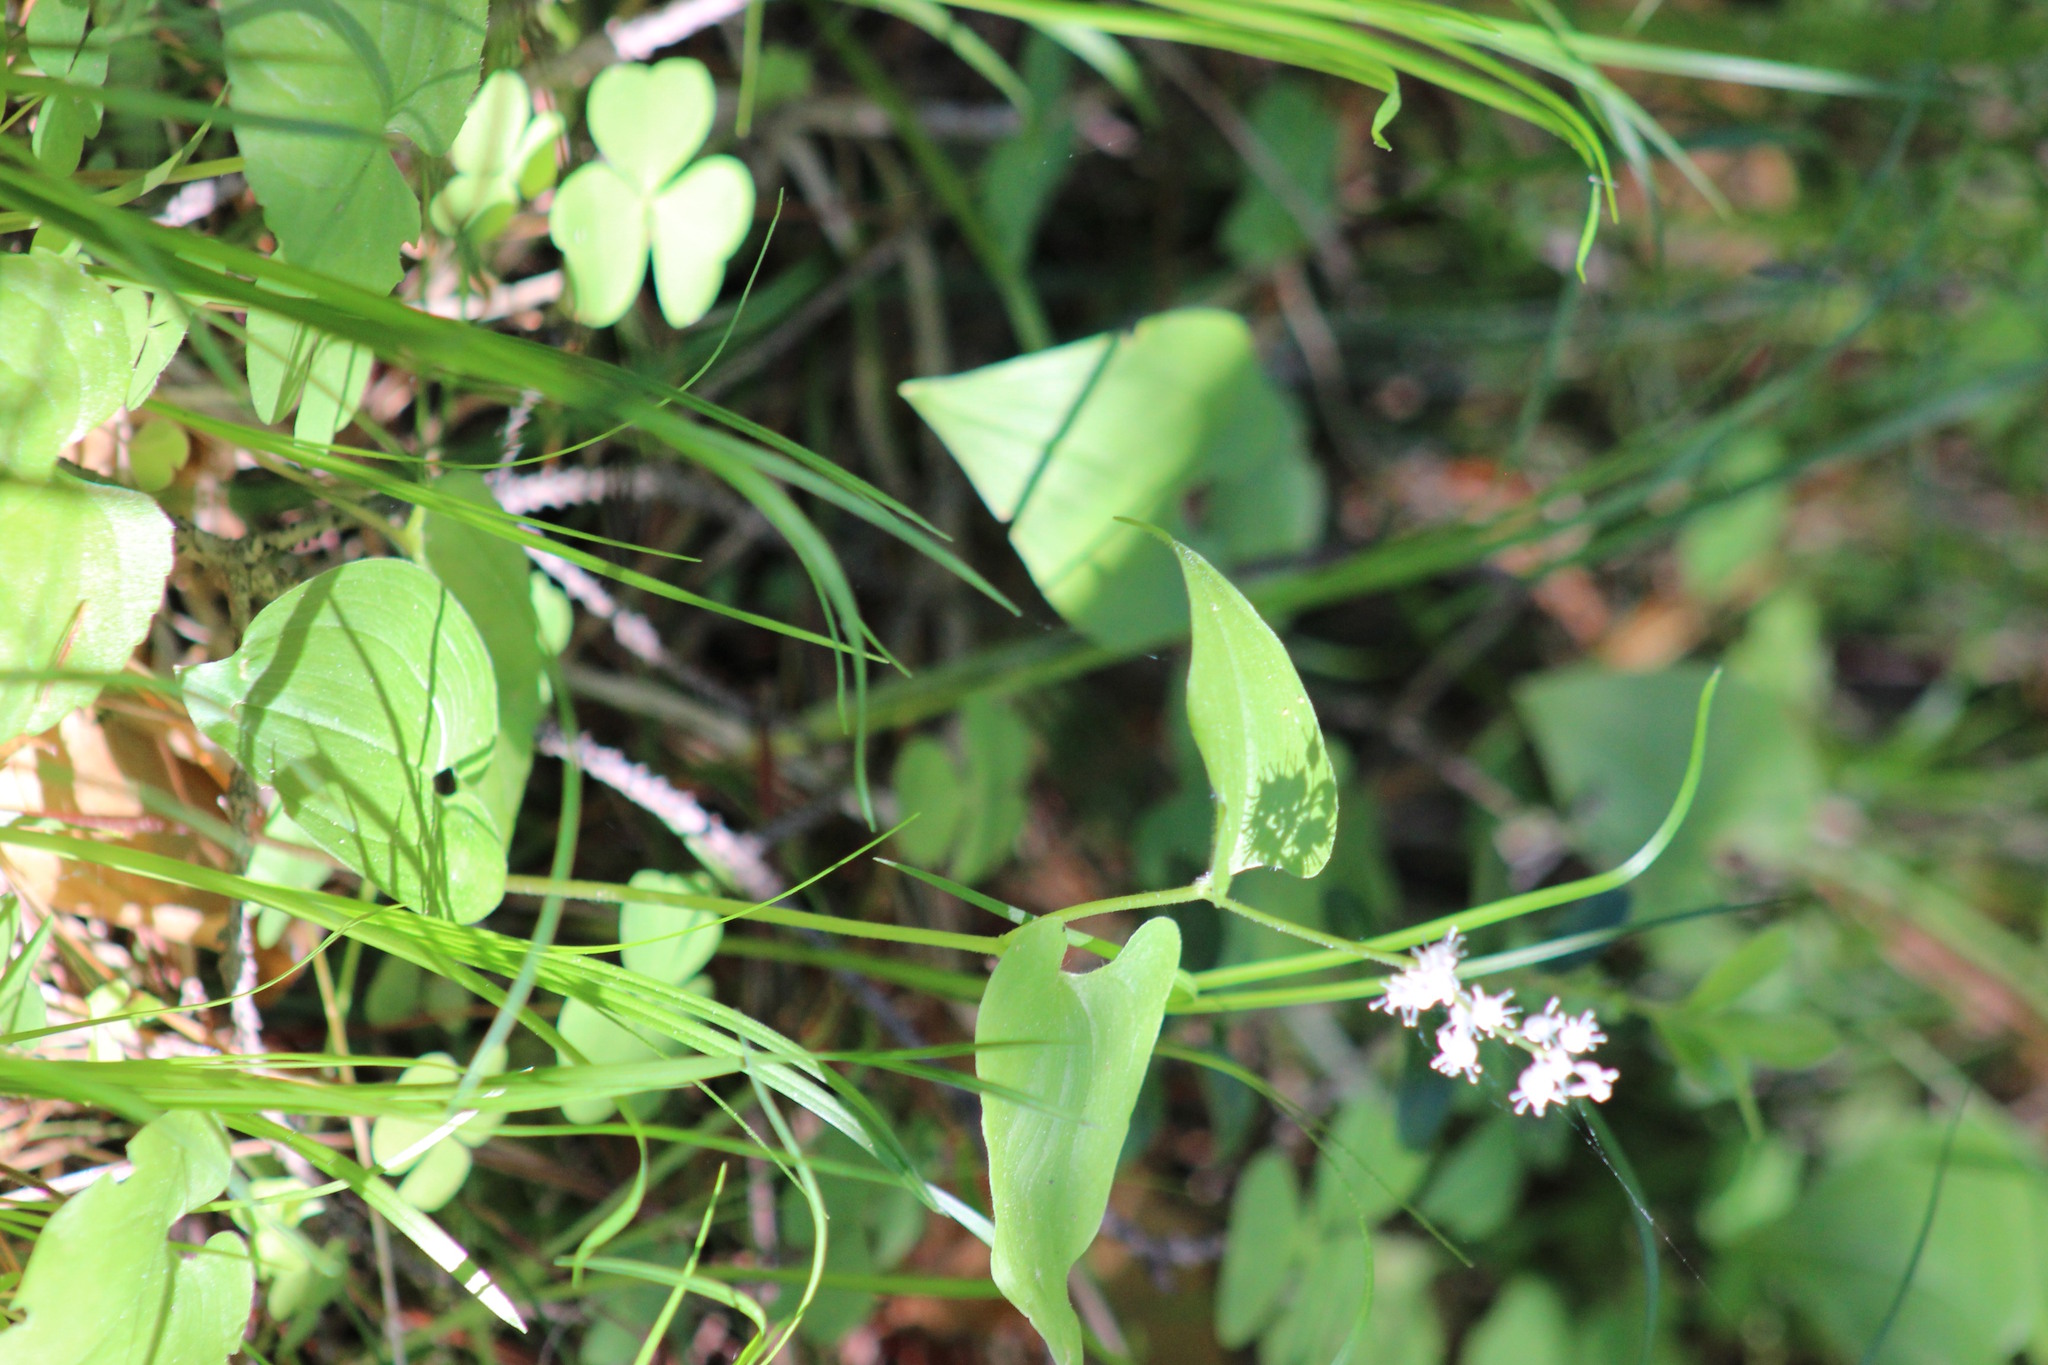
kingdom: Plantae
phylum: Tracheophyta
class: Liliopsida
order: Asparagales
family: Asparagaceae
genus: Maianthemum
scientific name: Maianthemum bifolium
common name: May lily
